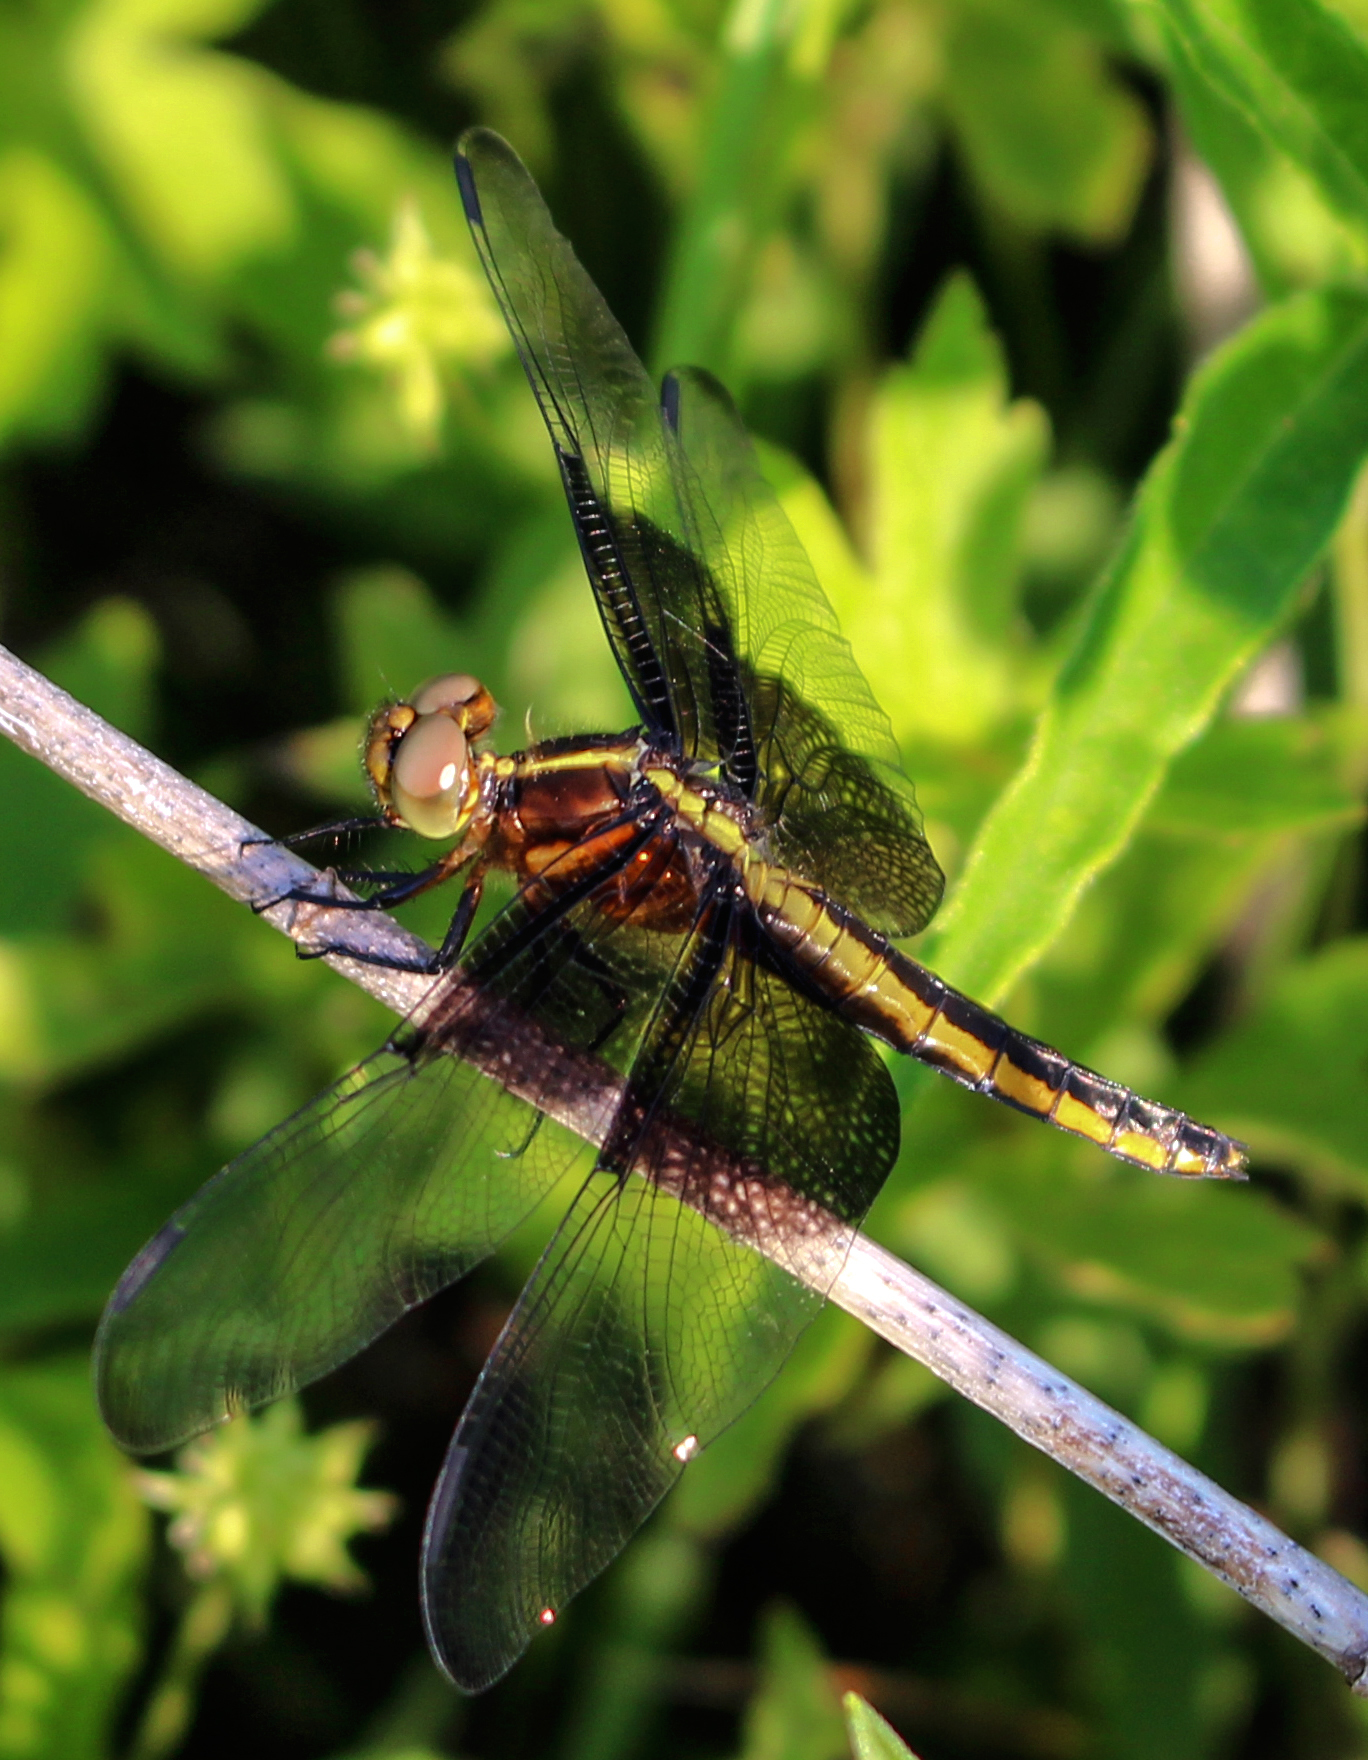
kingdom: Animalia
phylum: Arthropoda
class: Insecta
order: Odonata
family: Libellulidae
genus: Libellula
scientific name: Libellula luctuosa
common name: Widow skimmer
